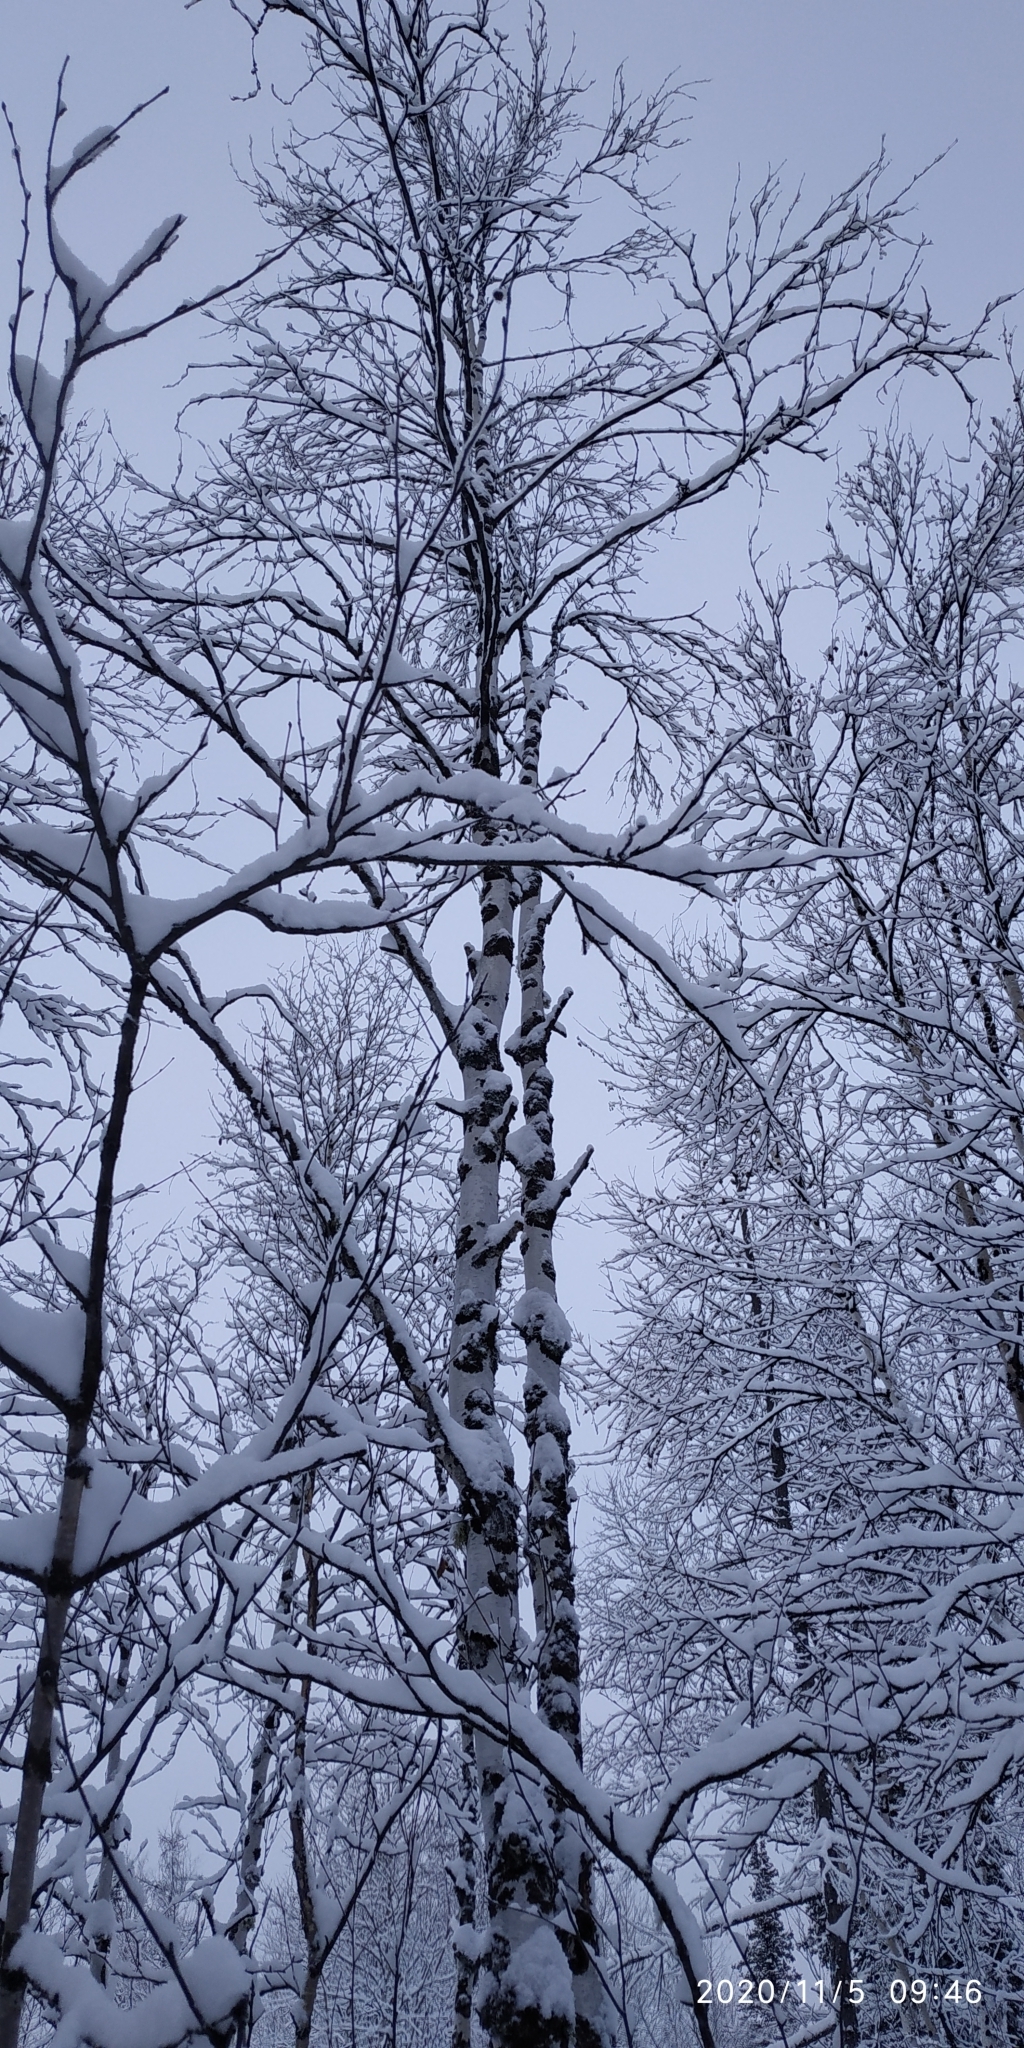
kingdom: Plantae
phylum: Tracheophyta
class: Magnoliopsida
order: Fagales
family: Betulaceae
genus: Betula
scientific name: Betula pubescens
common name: Downy birch
